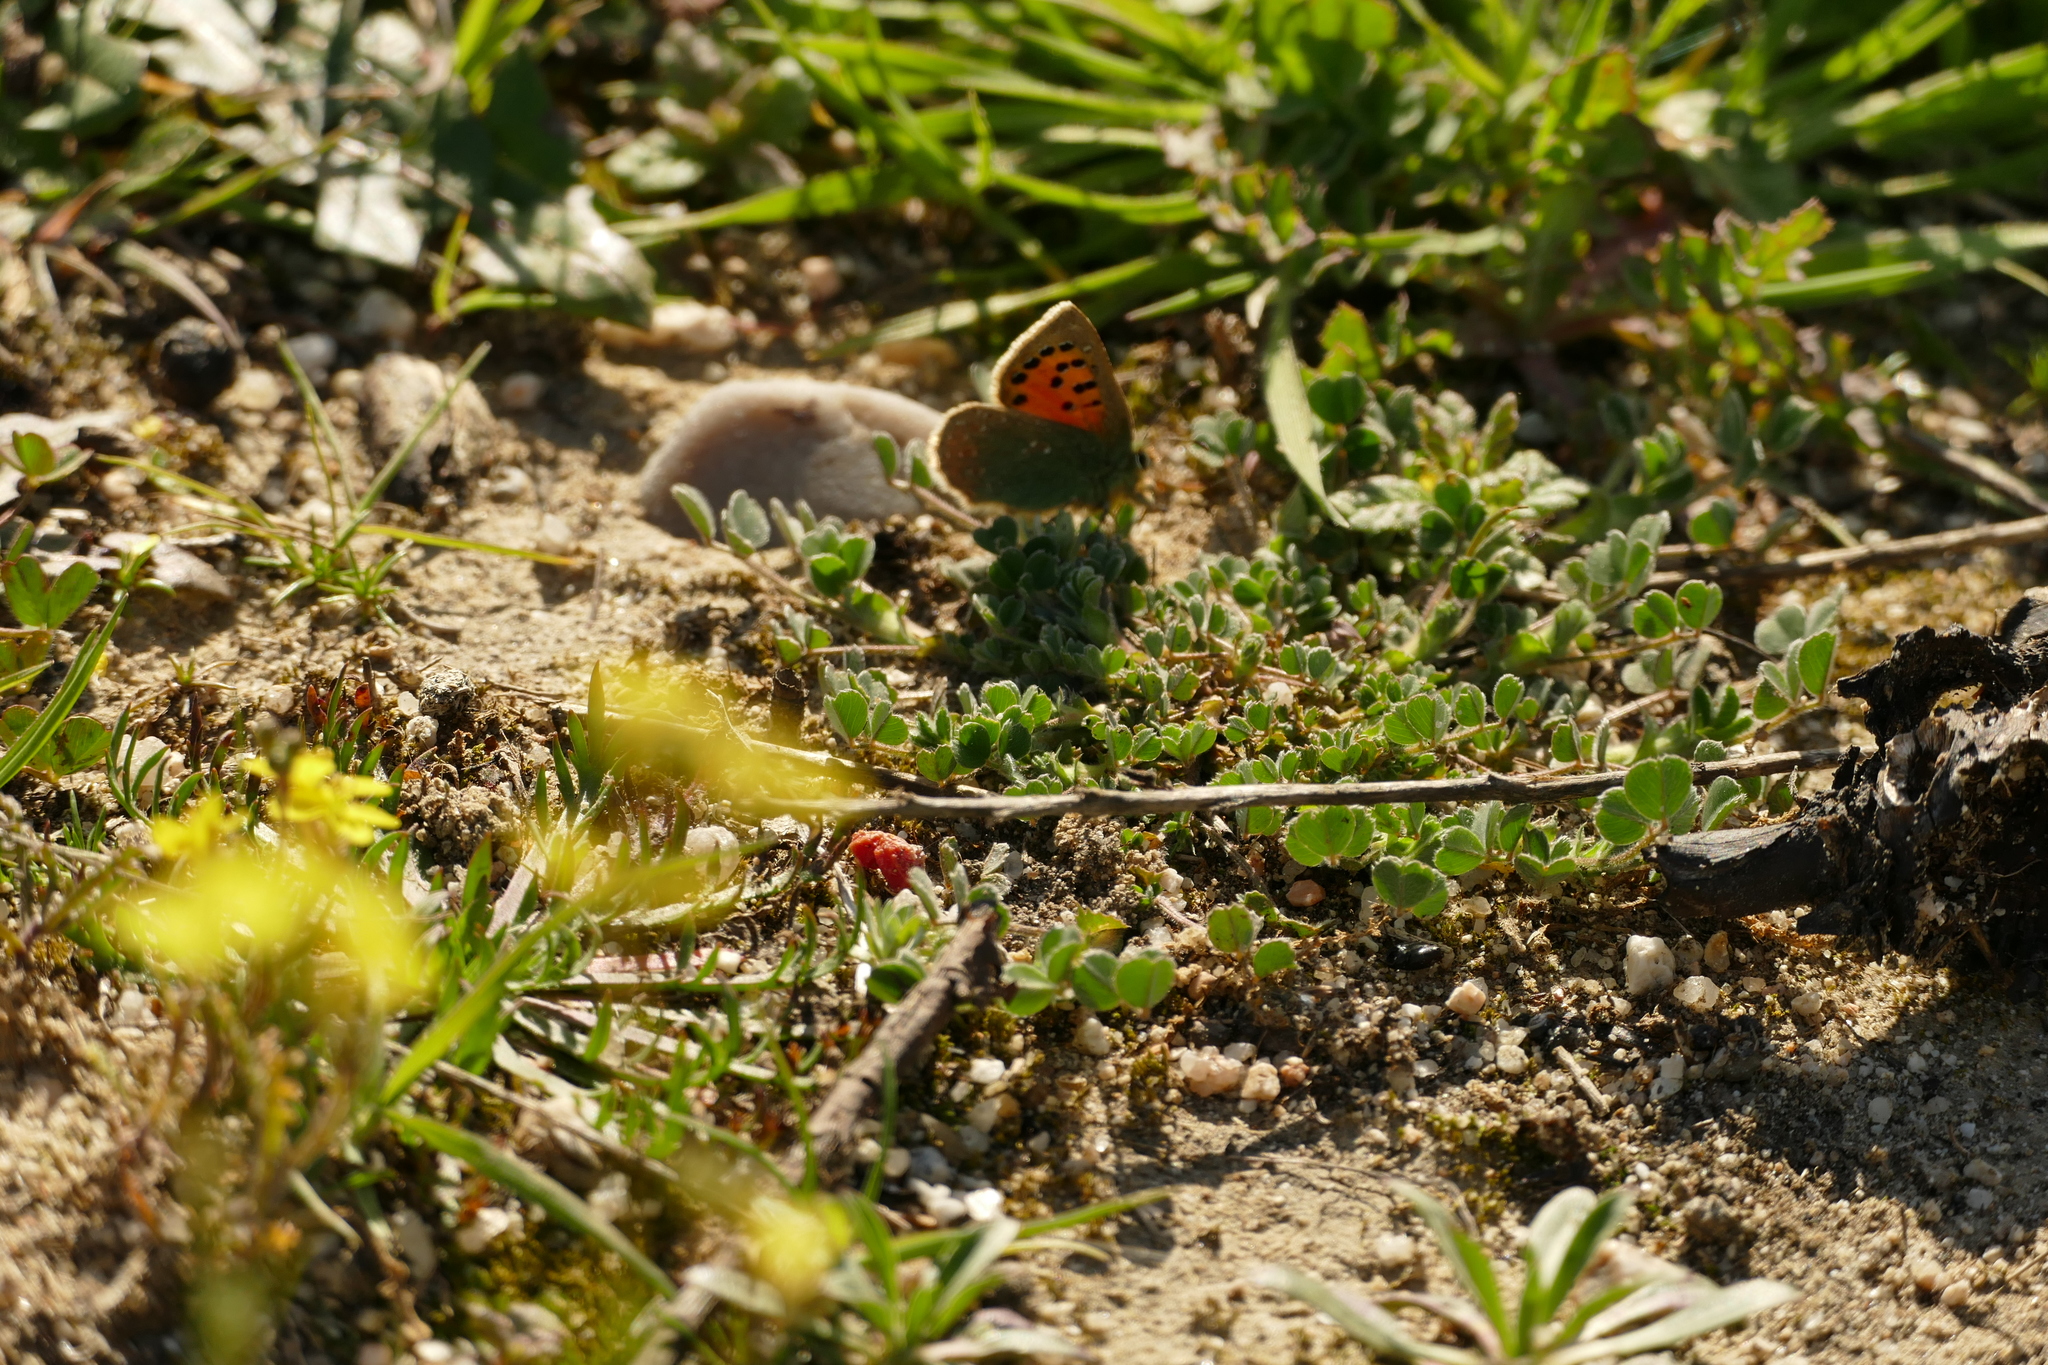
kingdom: Animalia
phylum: Arthropoda
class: Insecta
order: Lepidoptera
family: Lycaenidae
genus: Tomares
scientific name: Tomares ballus
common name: Provence hairstreak
